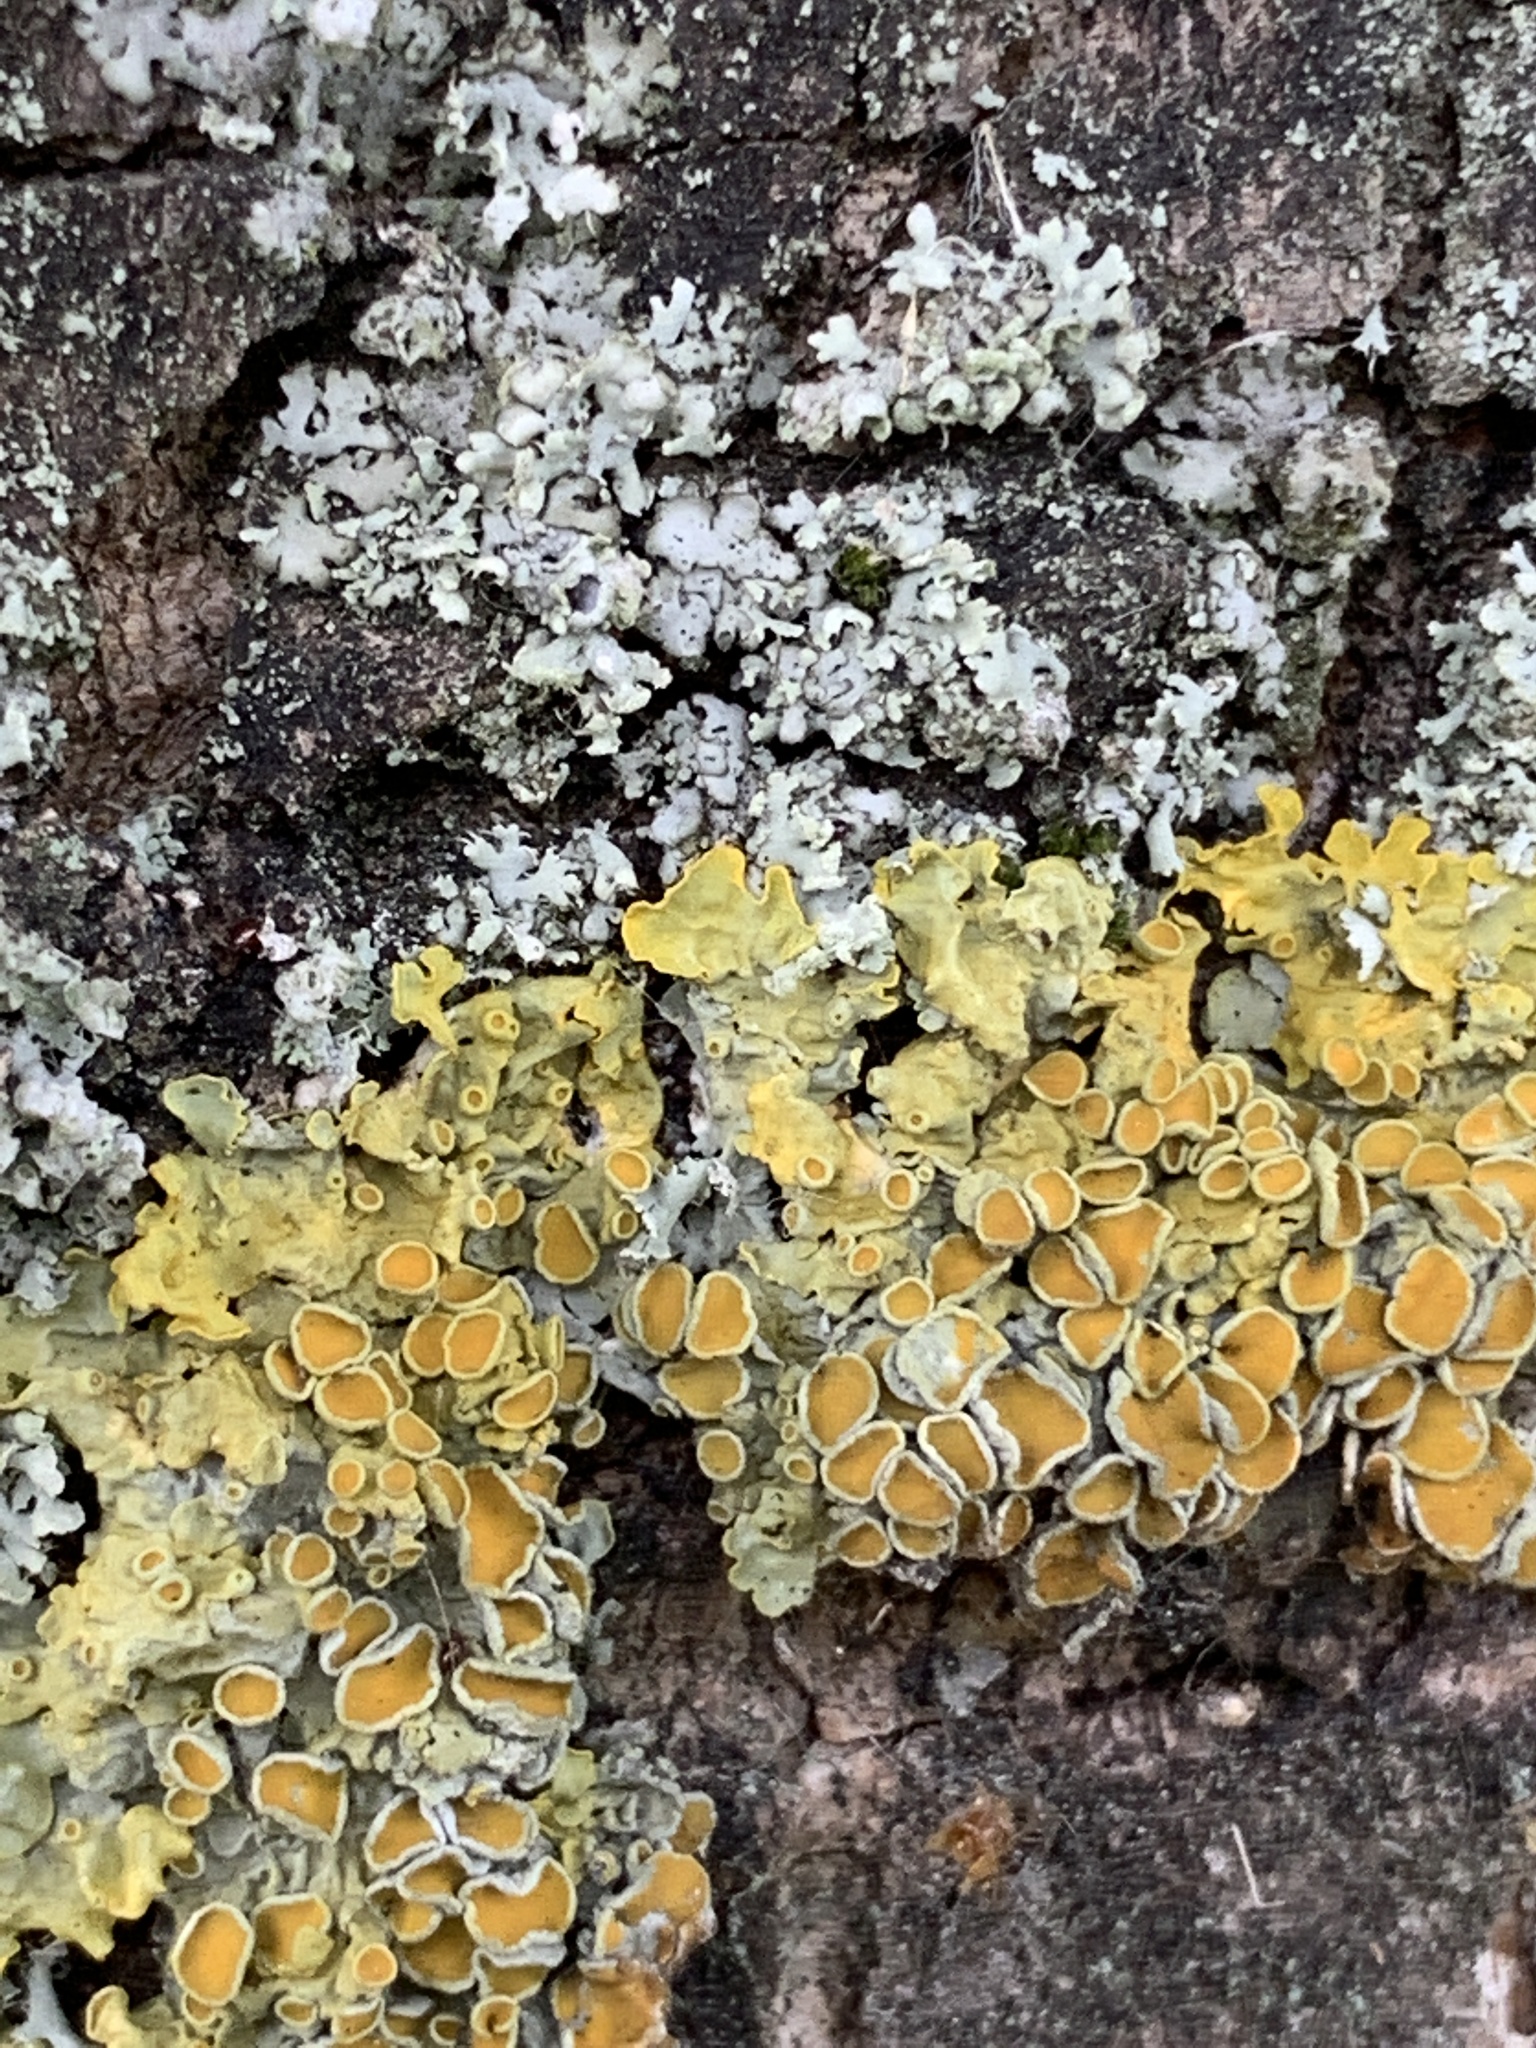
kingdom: Fungi
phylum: Ascomycota
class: Lecanoromycetes
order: Teloschistales
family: Teloschistaceae
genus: Xanthoria
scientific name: Xanthoria parietina
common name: Common orange lichen
